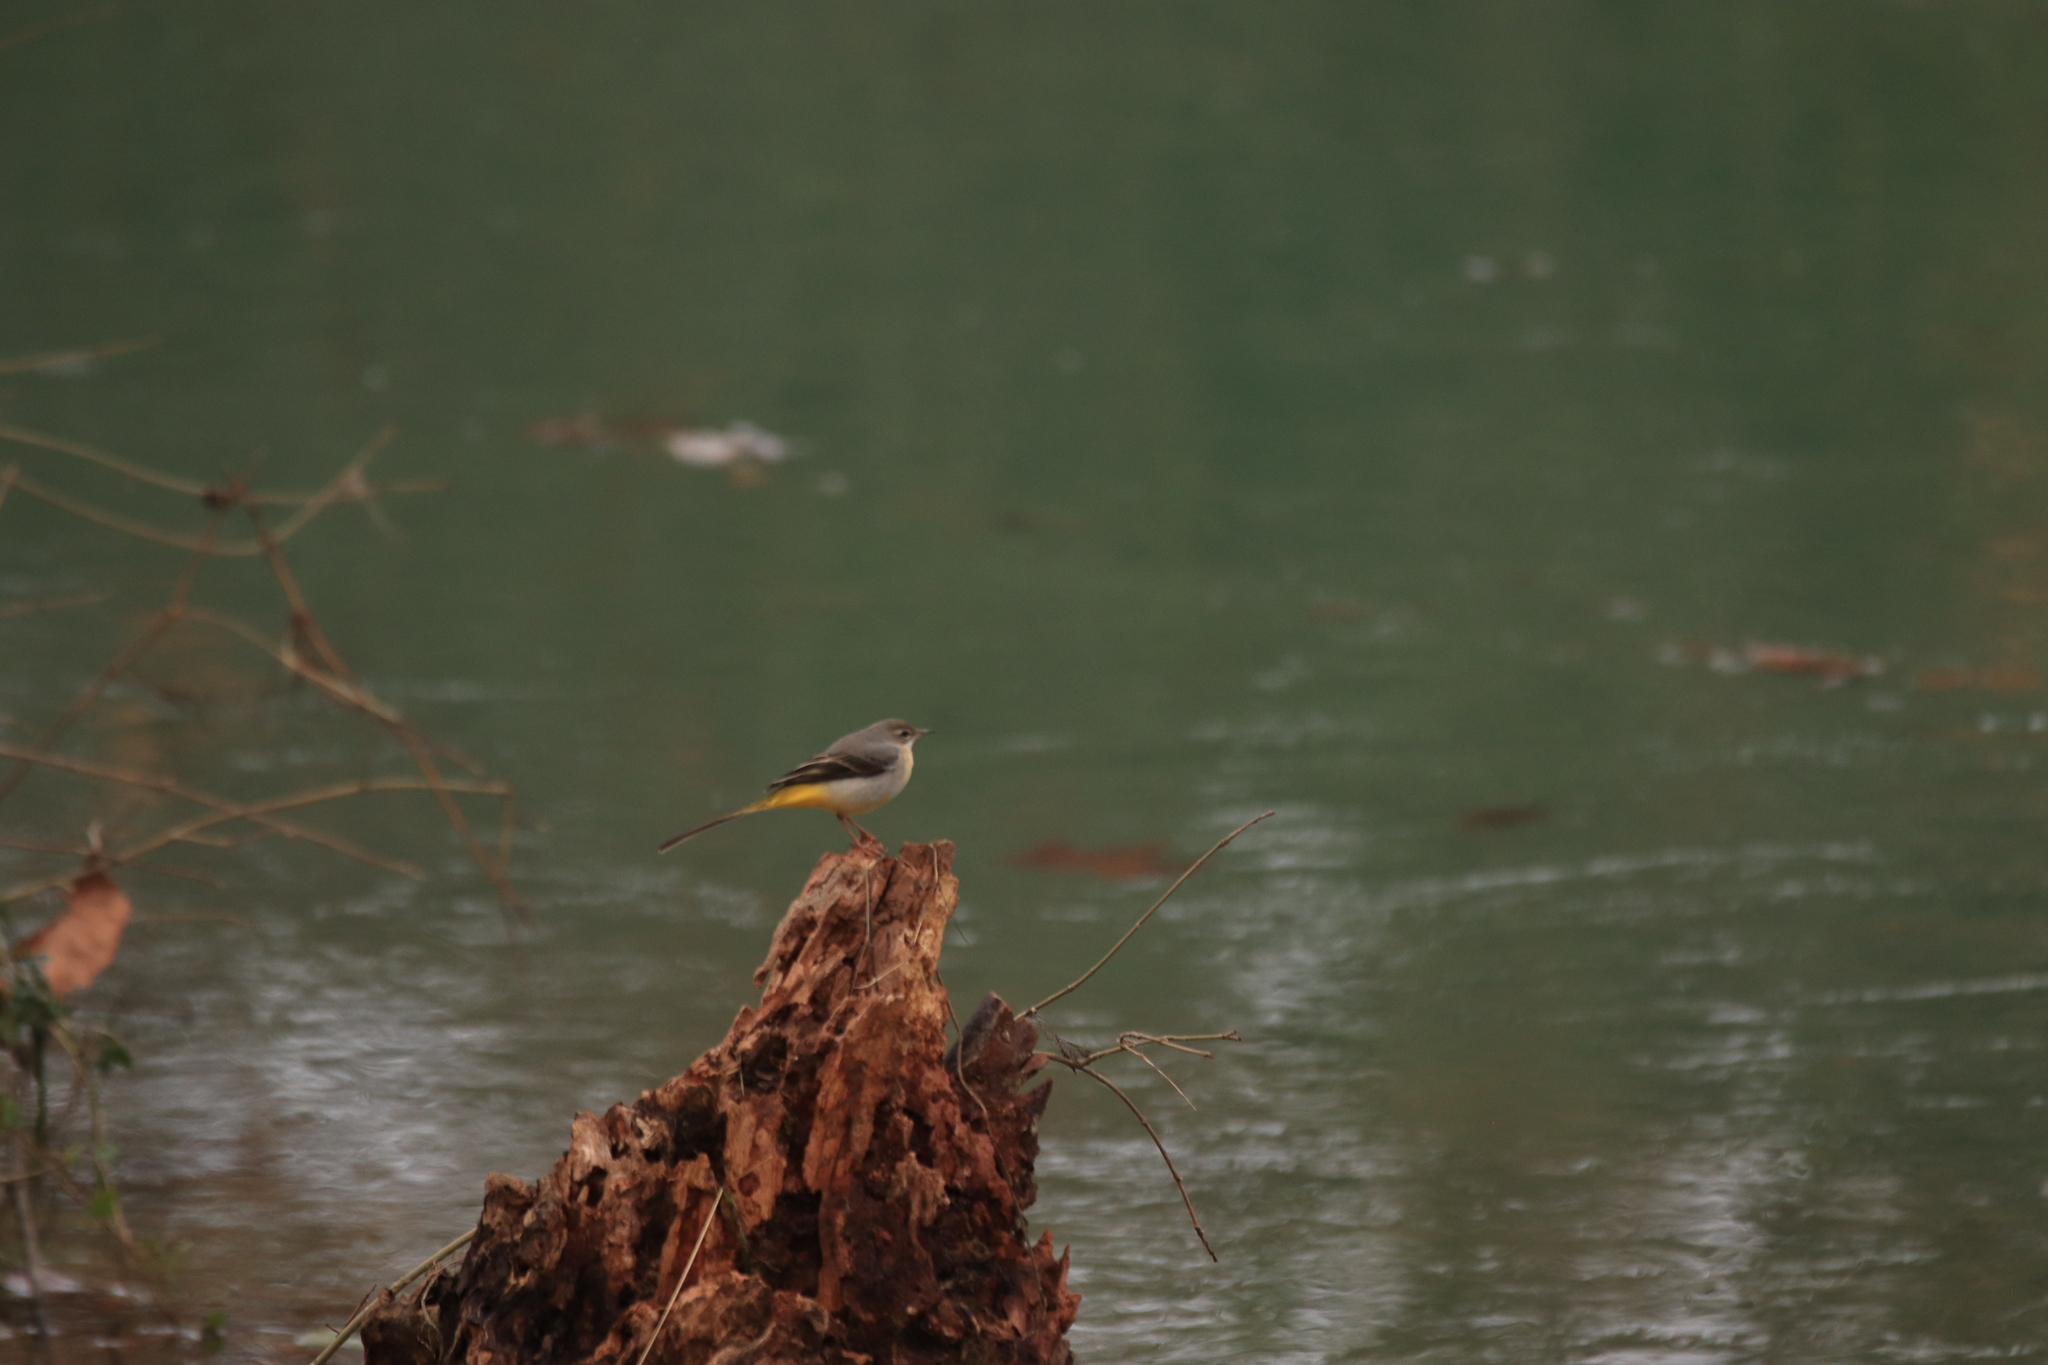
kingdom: Animalia
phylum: Chordata
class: Aves
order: Passeriformes
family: Motacillidae
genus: Motacilla
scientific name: Motacilla cinerea
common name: Grey wagtail
